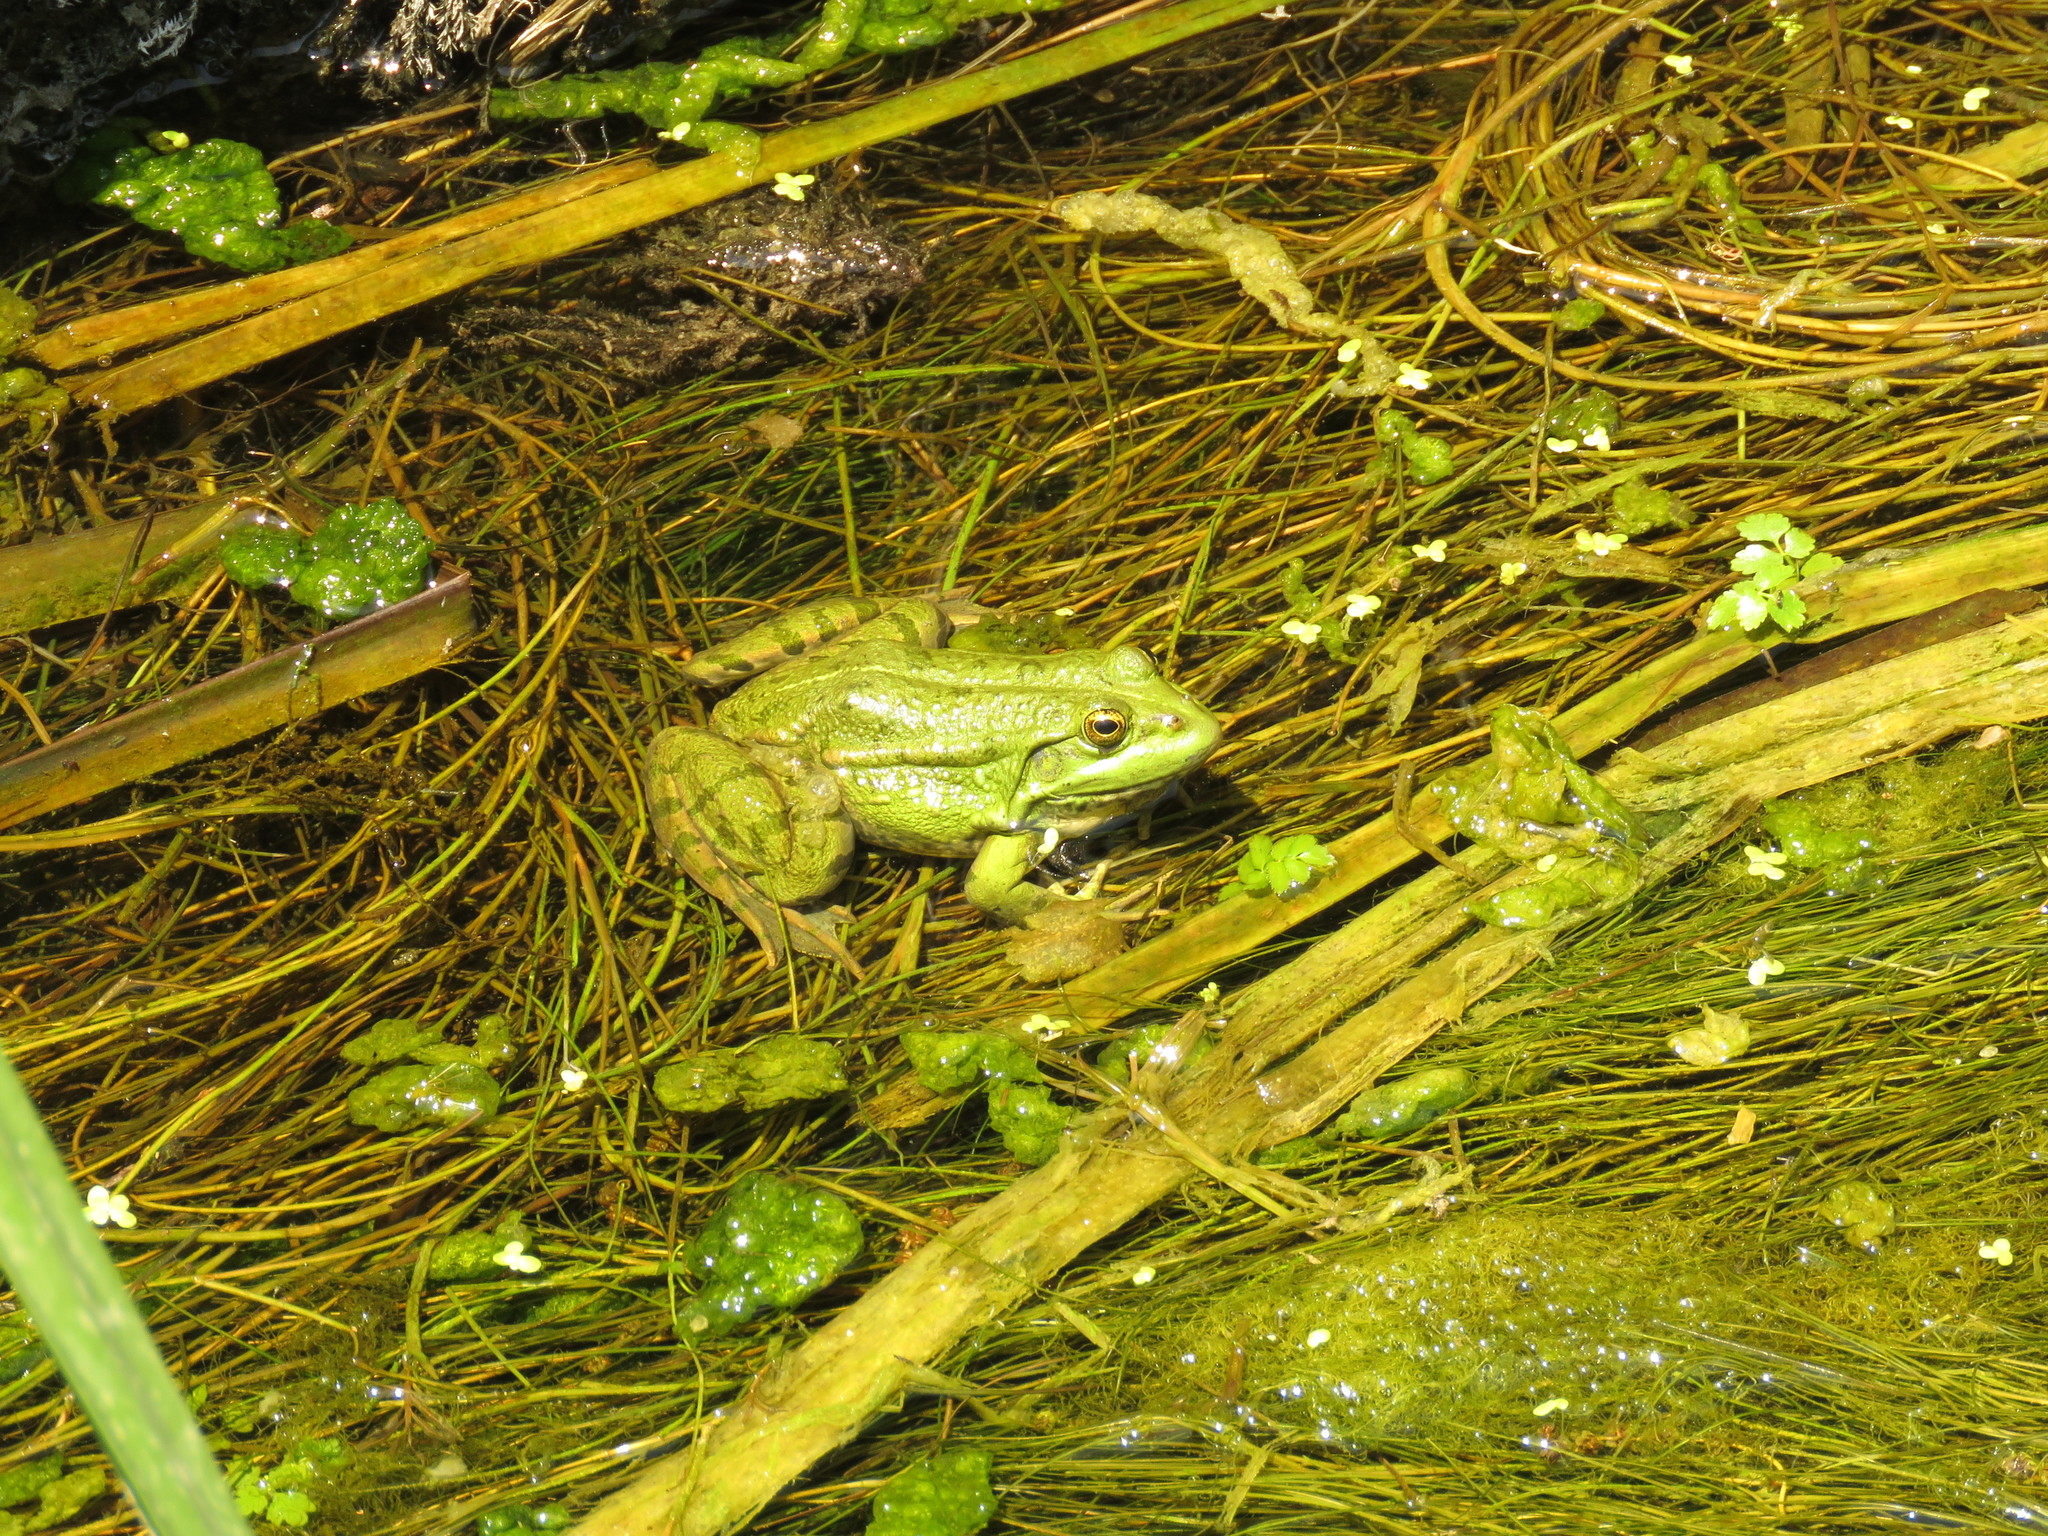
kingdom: Animalia
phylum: Chordata
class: Amphibia
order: Anura
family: Ranidae
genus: Pelophylax
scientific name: Pelophylax ridibundus
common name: Marsh frog
